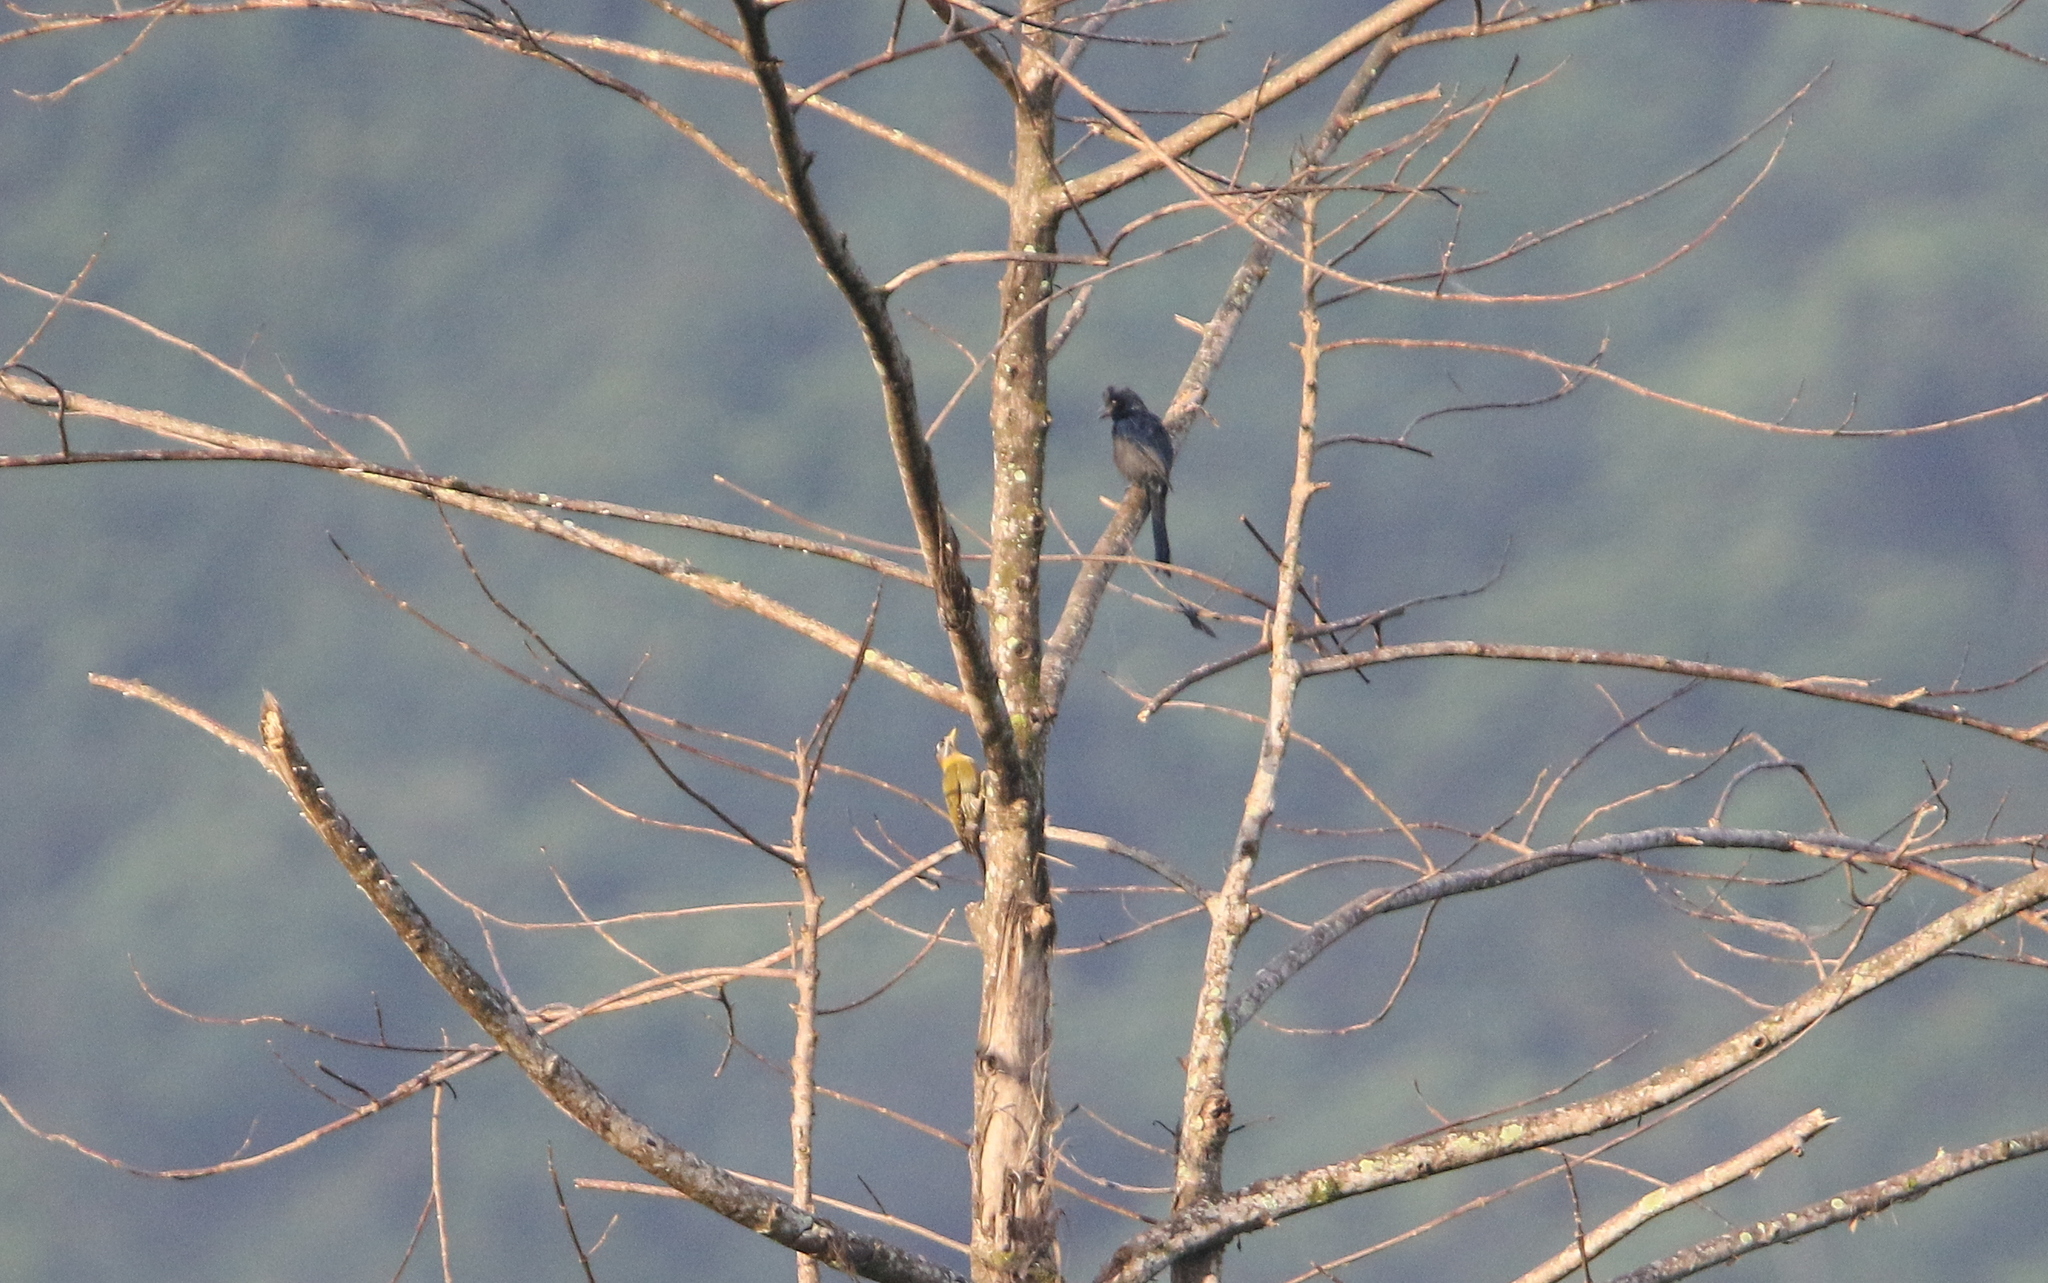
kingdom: Animalia
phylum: Chordata
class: Aves
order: Piciformes
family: Picidae
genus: Picus
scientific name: Picus vittatus
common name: Laced woodpecker
